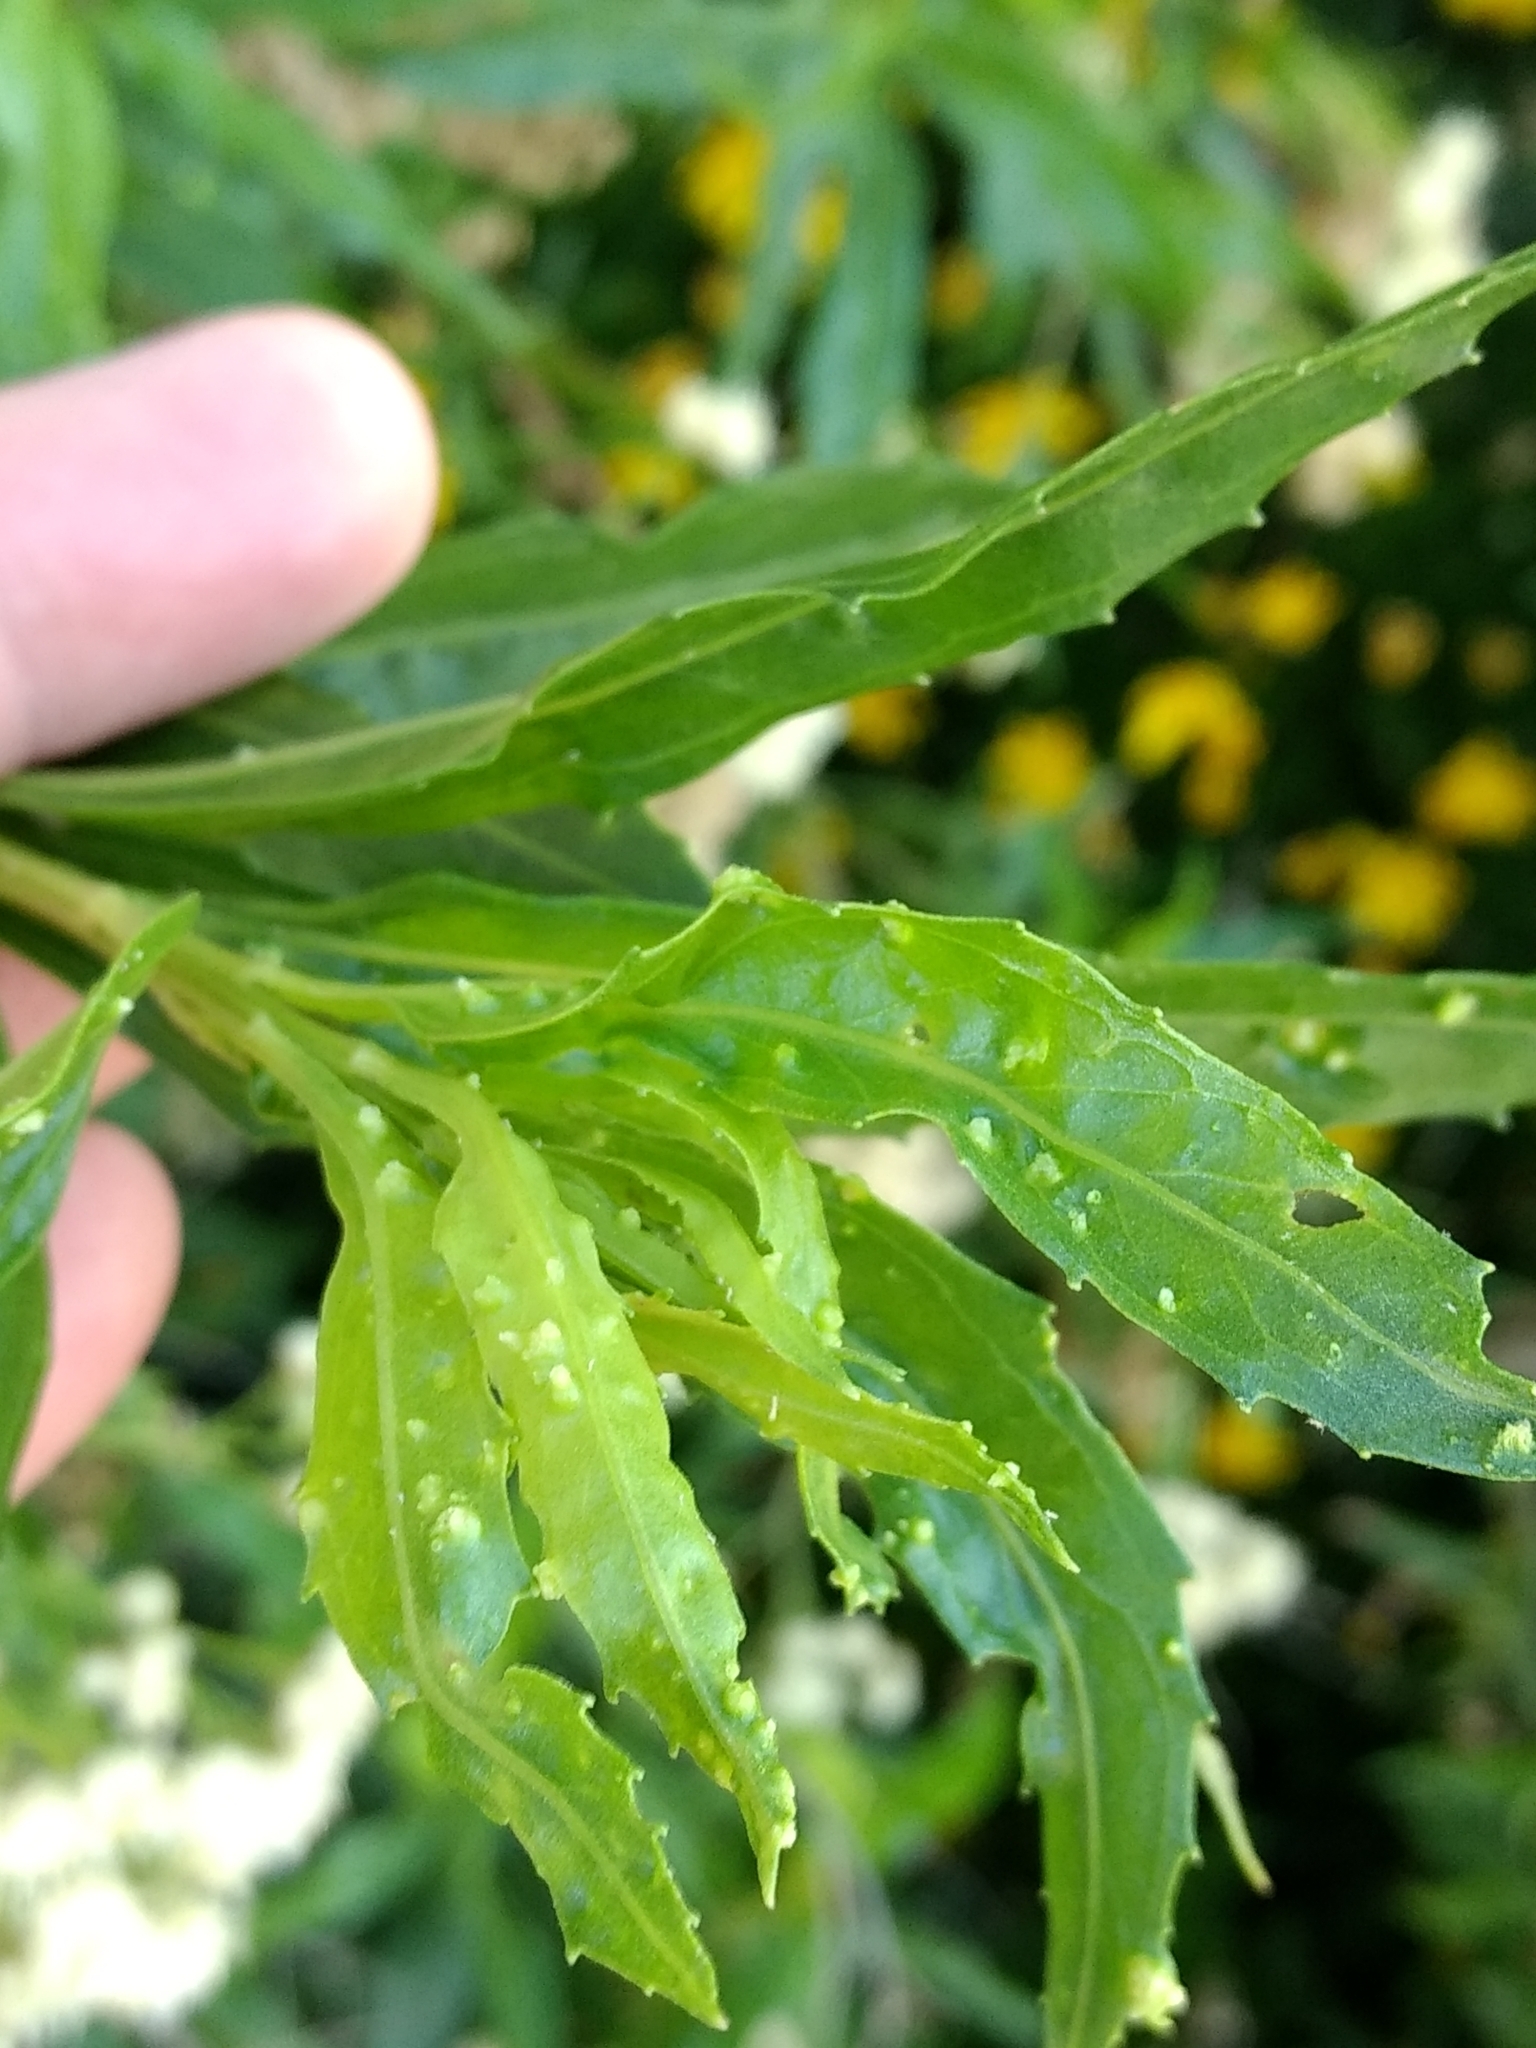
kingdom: Animalia
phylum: Arthropoda
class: Arachnida
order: Trombidiformes
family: Eriophyidae
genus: Aceria
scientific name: Aceria
